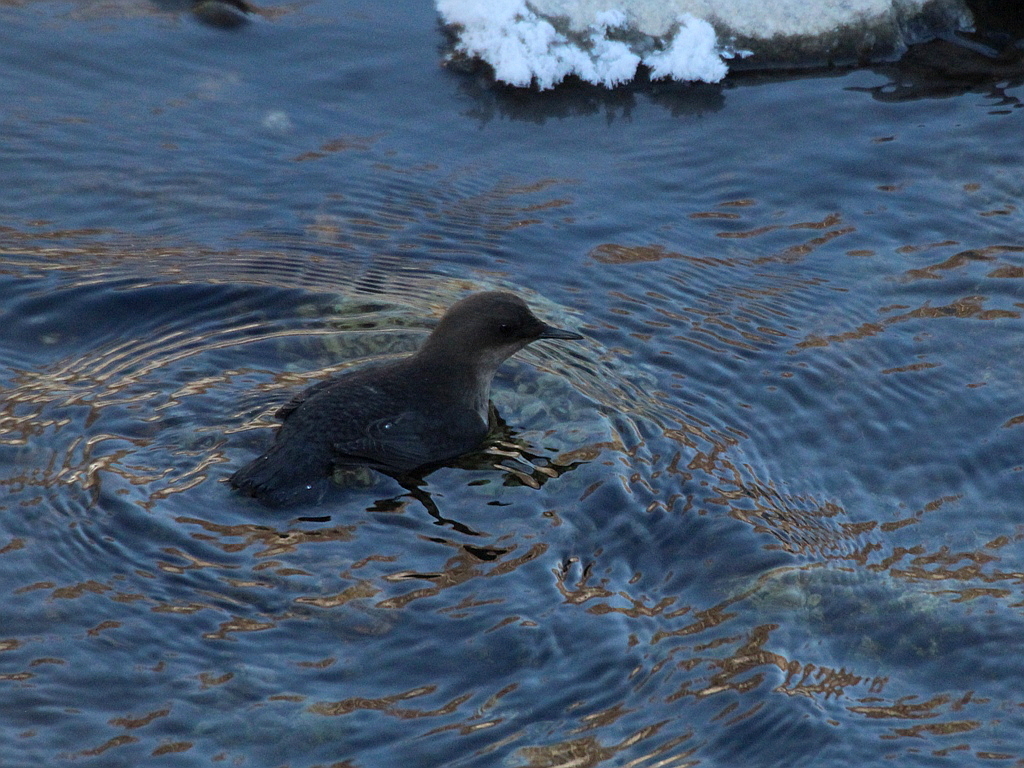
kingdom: Animalia
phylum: Chordata
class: Aves
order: Passeriformes
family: Cinclidae
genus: Cinclus
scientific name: Cinclus cinclus
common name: White-throated dipper
